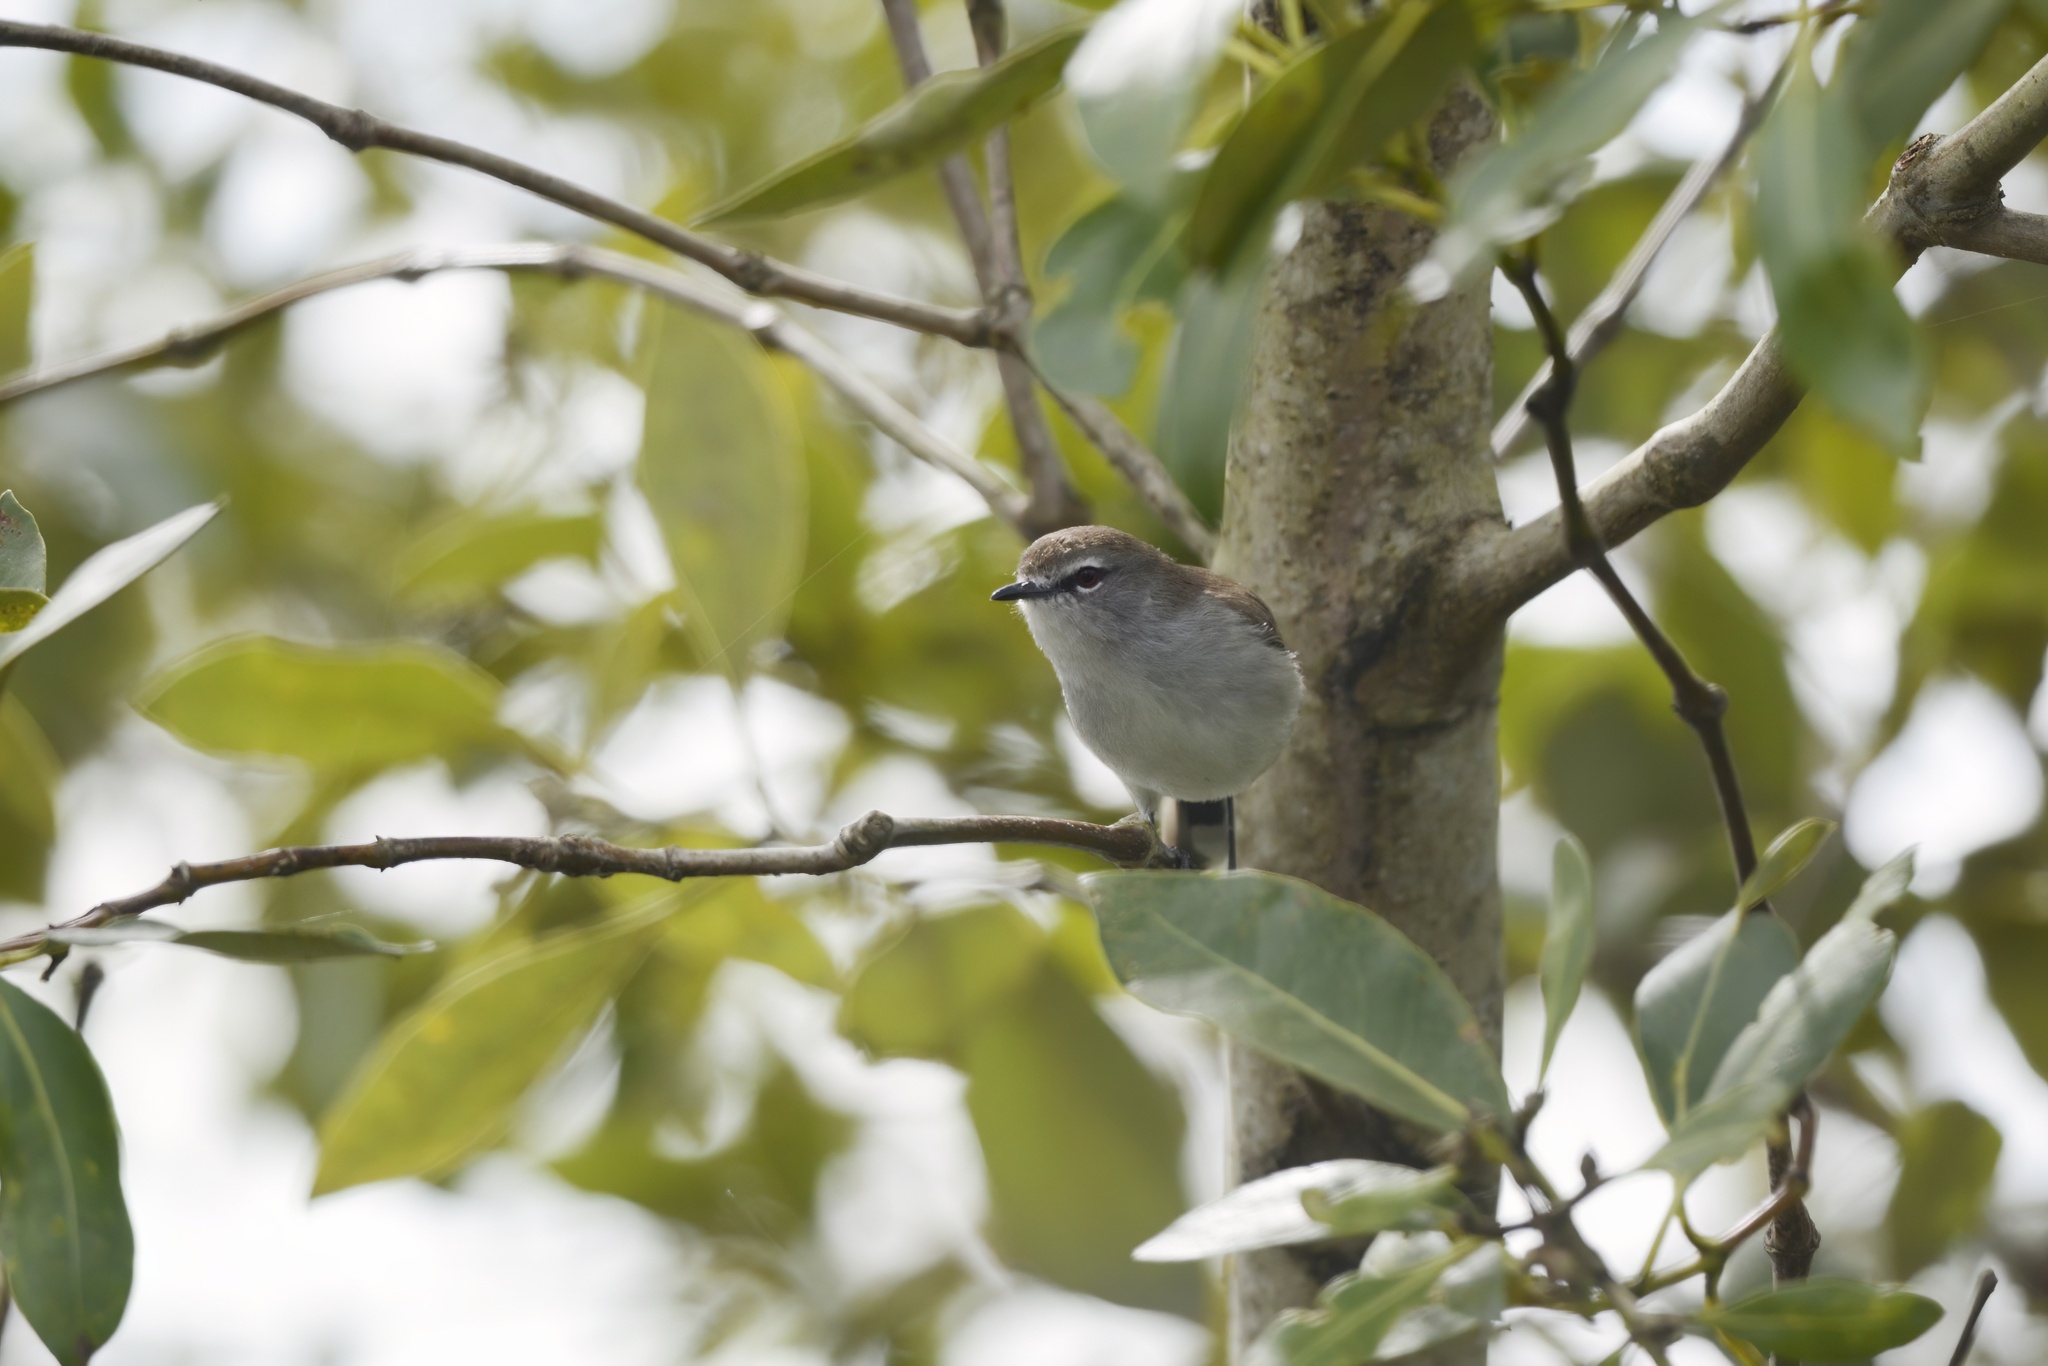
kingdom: Animalia
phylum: Chordata
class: Aves
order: Passeriformes
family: Acanthizidae
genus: Gerygone
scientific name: Gerygone levigaster
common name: Mangrove gerygone
